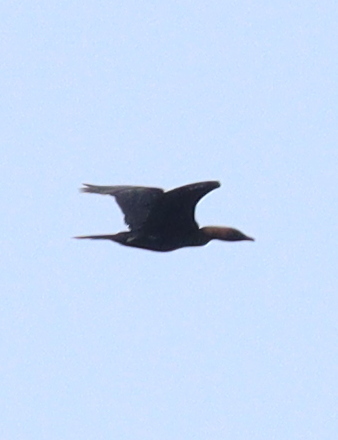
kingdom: Animalia
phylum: Chordata
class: Aves
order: Suliformes
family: Phalacrocoracidae
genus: Microcarbo
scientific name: Microcarbo pygmaeus
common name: Pygmy cormorant
